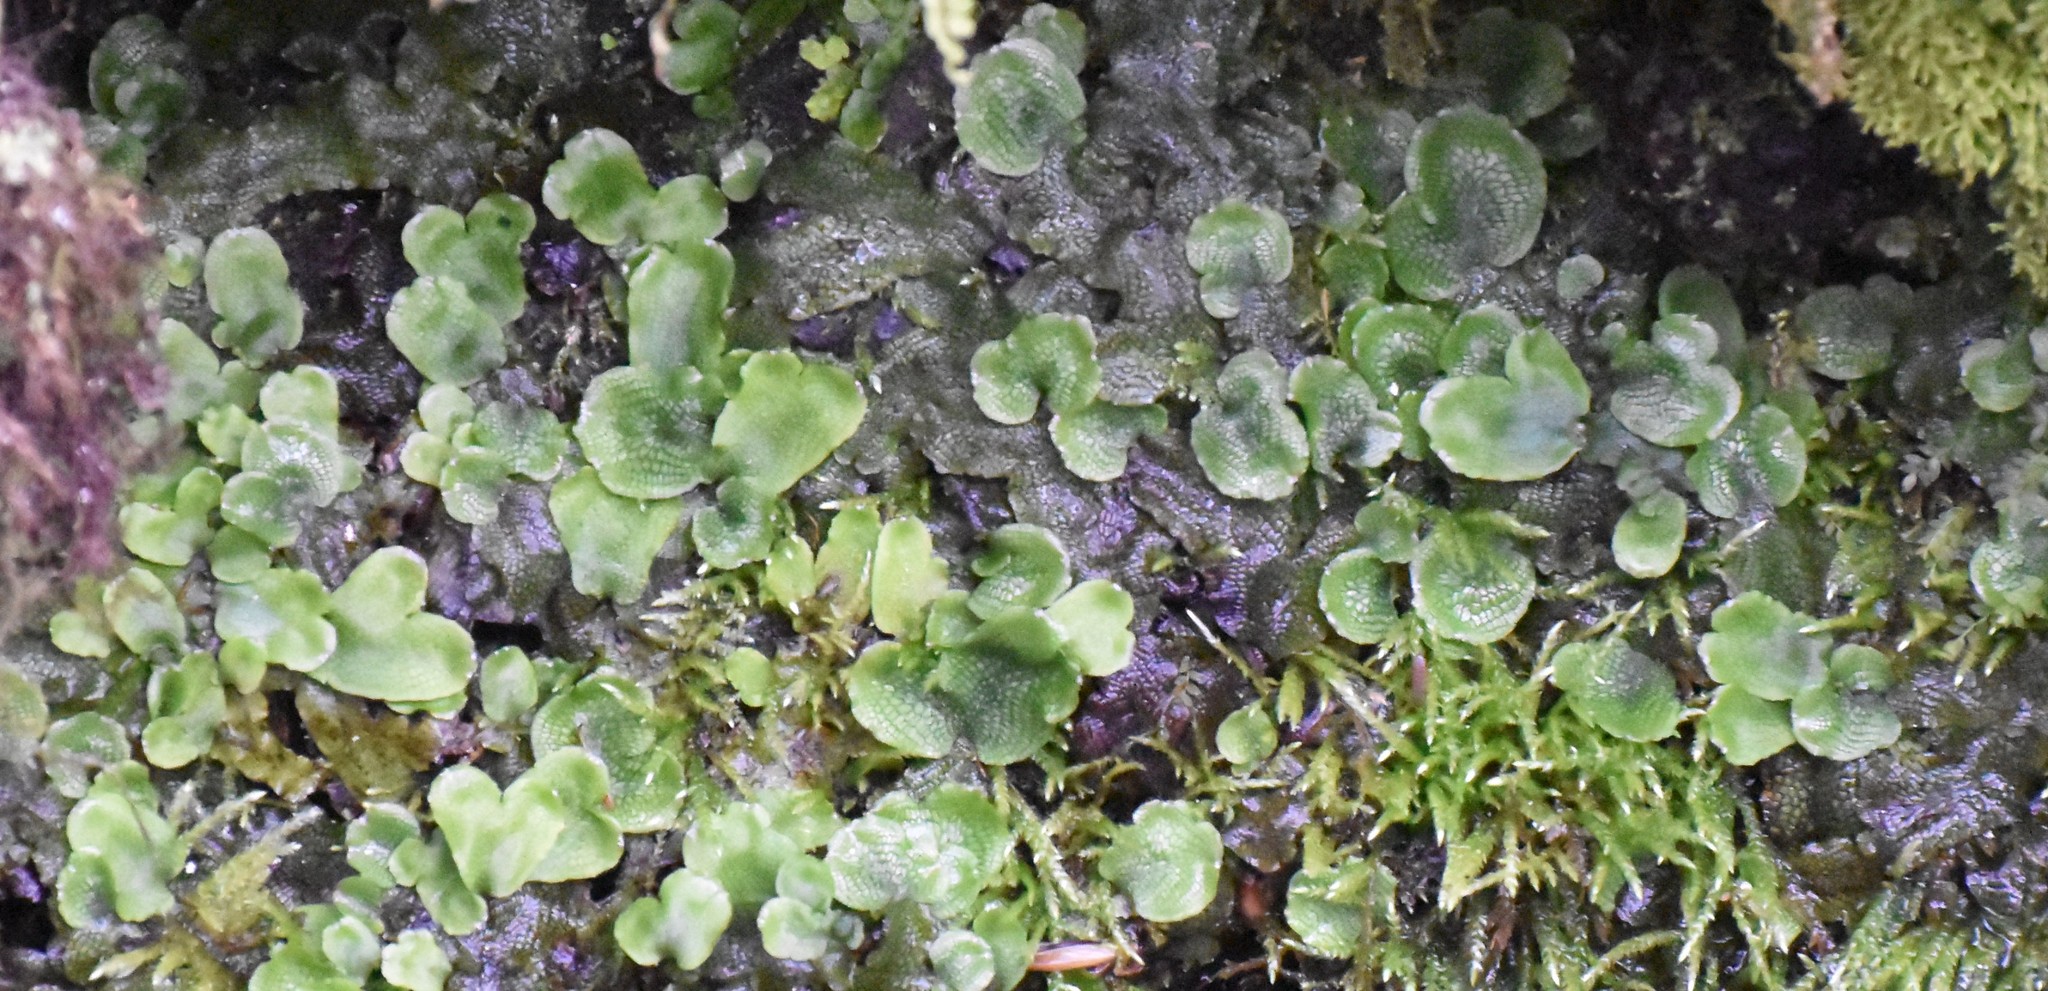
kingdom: Plantae
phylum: Marchantiophyta
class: Marchantiopsida
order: Marchantiales
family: Conocephalaceae
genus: Conocephalum
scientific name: Conocephalum salebrosum
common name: Cat-tongue liverwort
